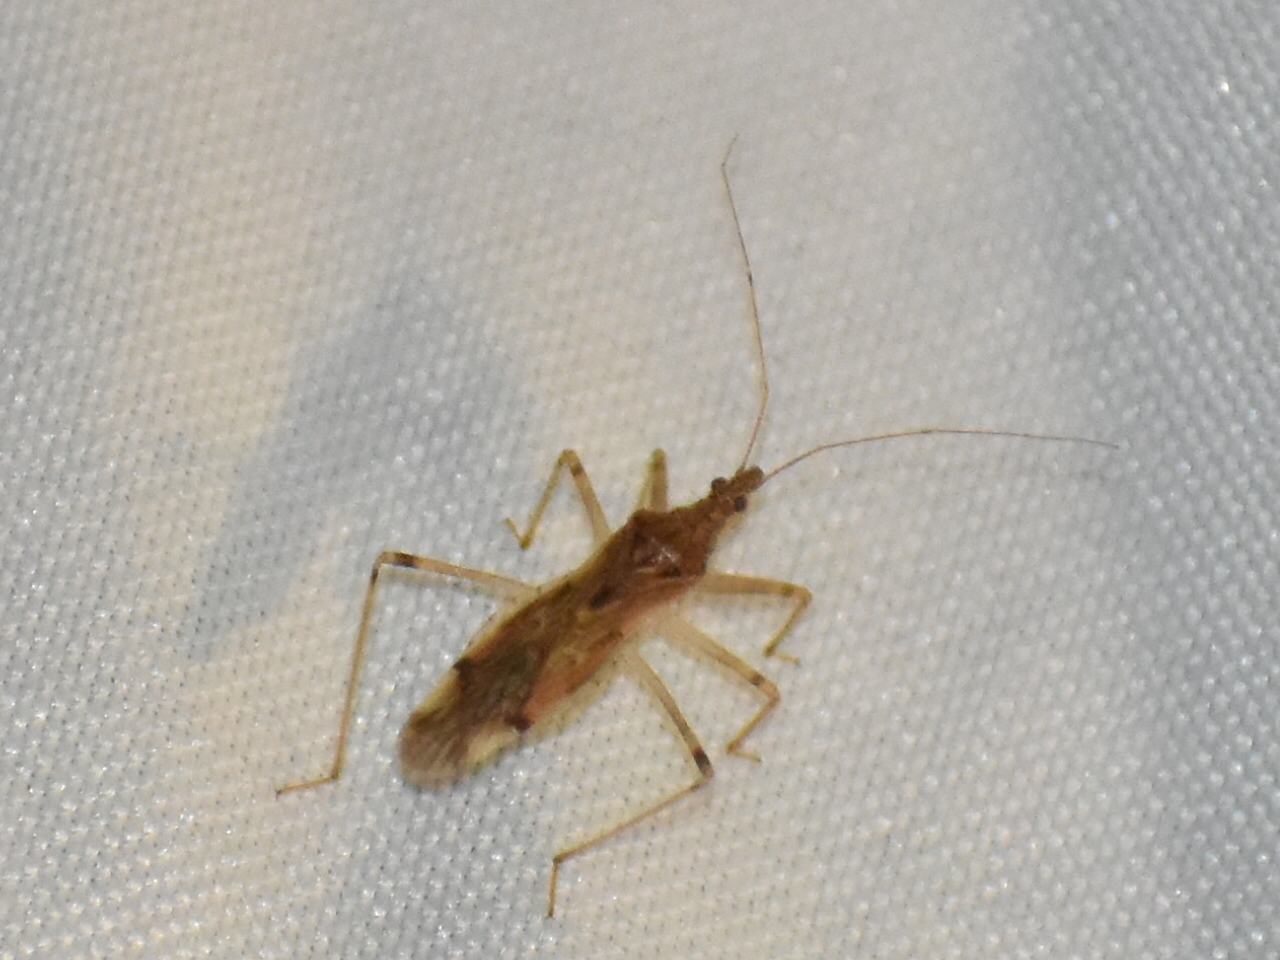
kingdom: Animalia
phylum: Arthropoda
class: Insecta
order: Hemiptera
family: Nabidae
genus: Lasiomerus
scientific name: Lasiomerus annulatus
